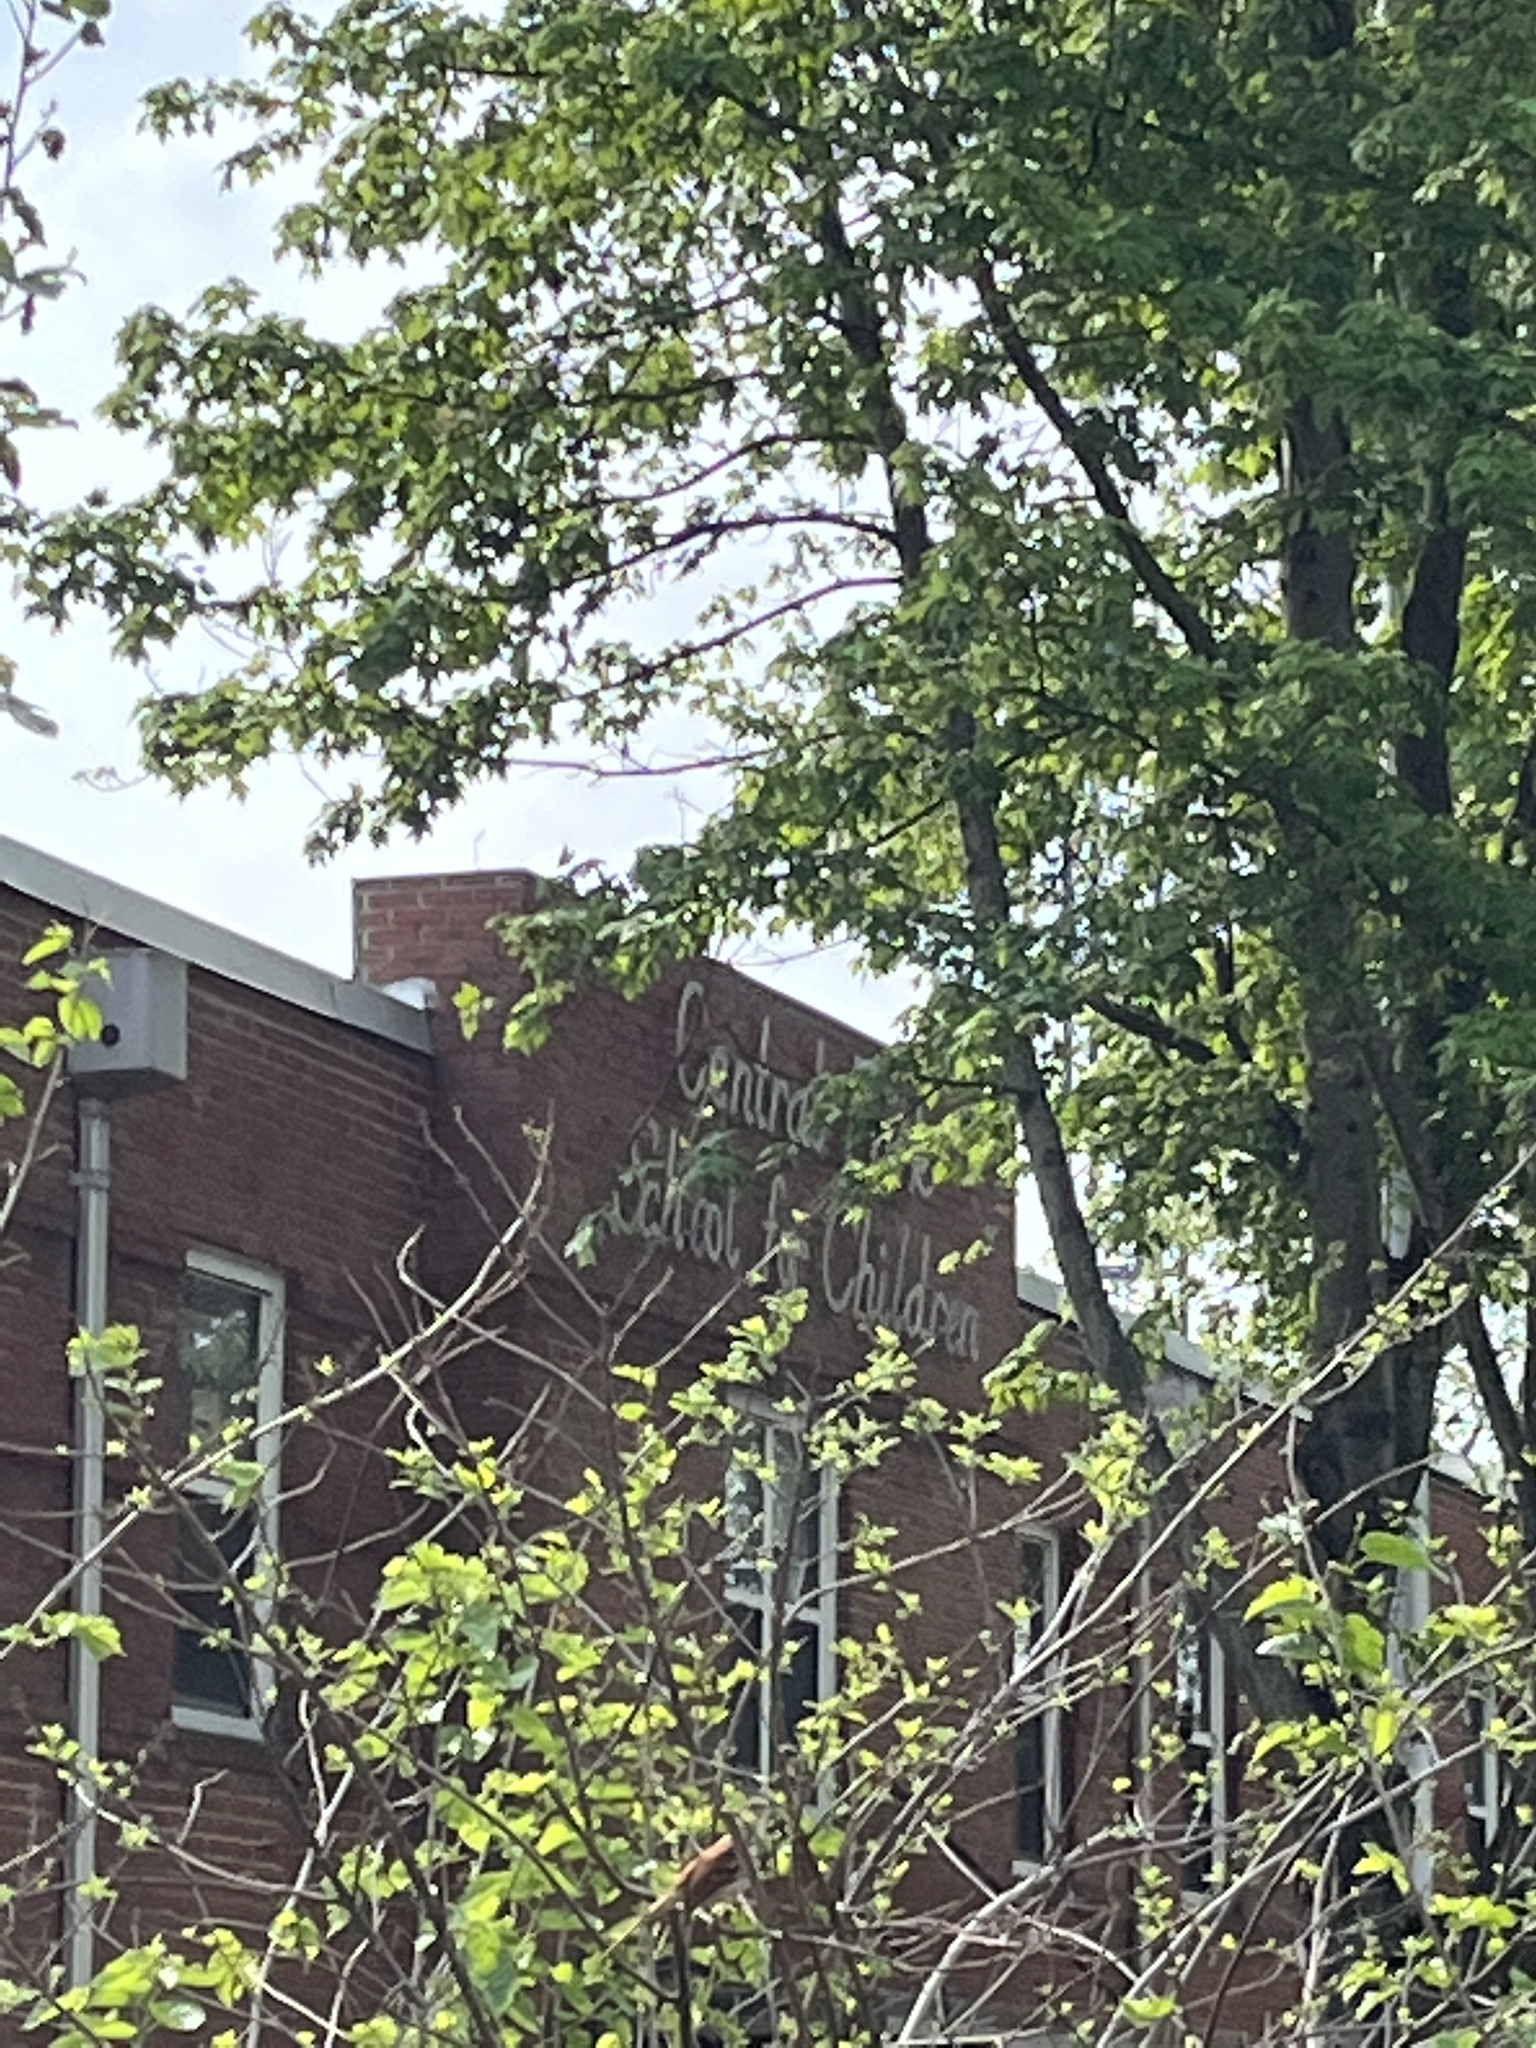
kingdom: Animalia
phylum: Chordata
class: Aves
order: Passeriformes
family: Mimidae
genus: Toxostoma
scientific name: Toxostoma rufum
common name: Brown thrasher
